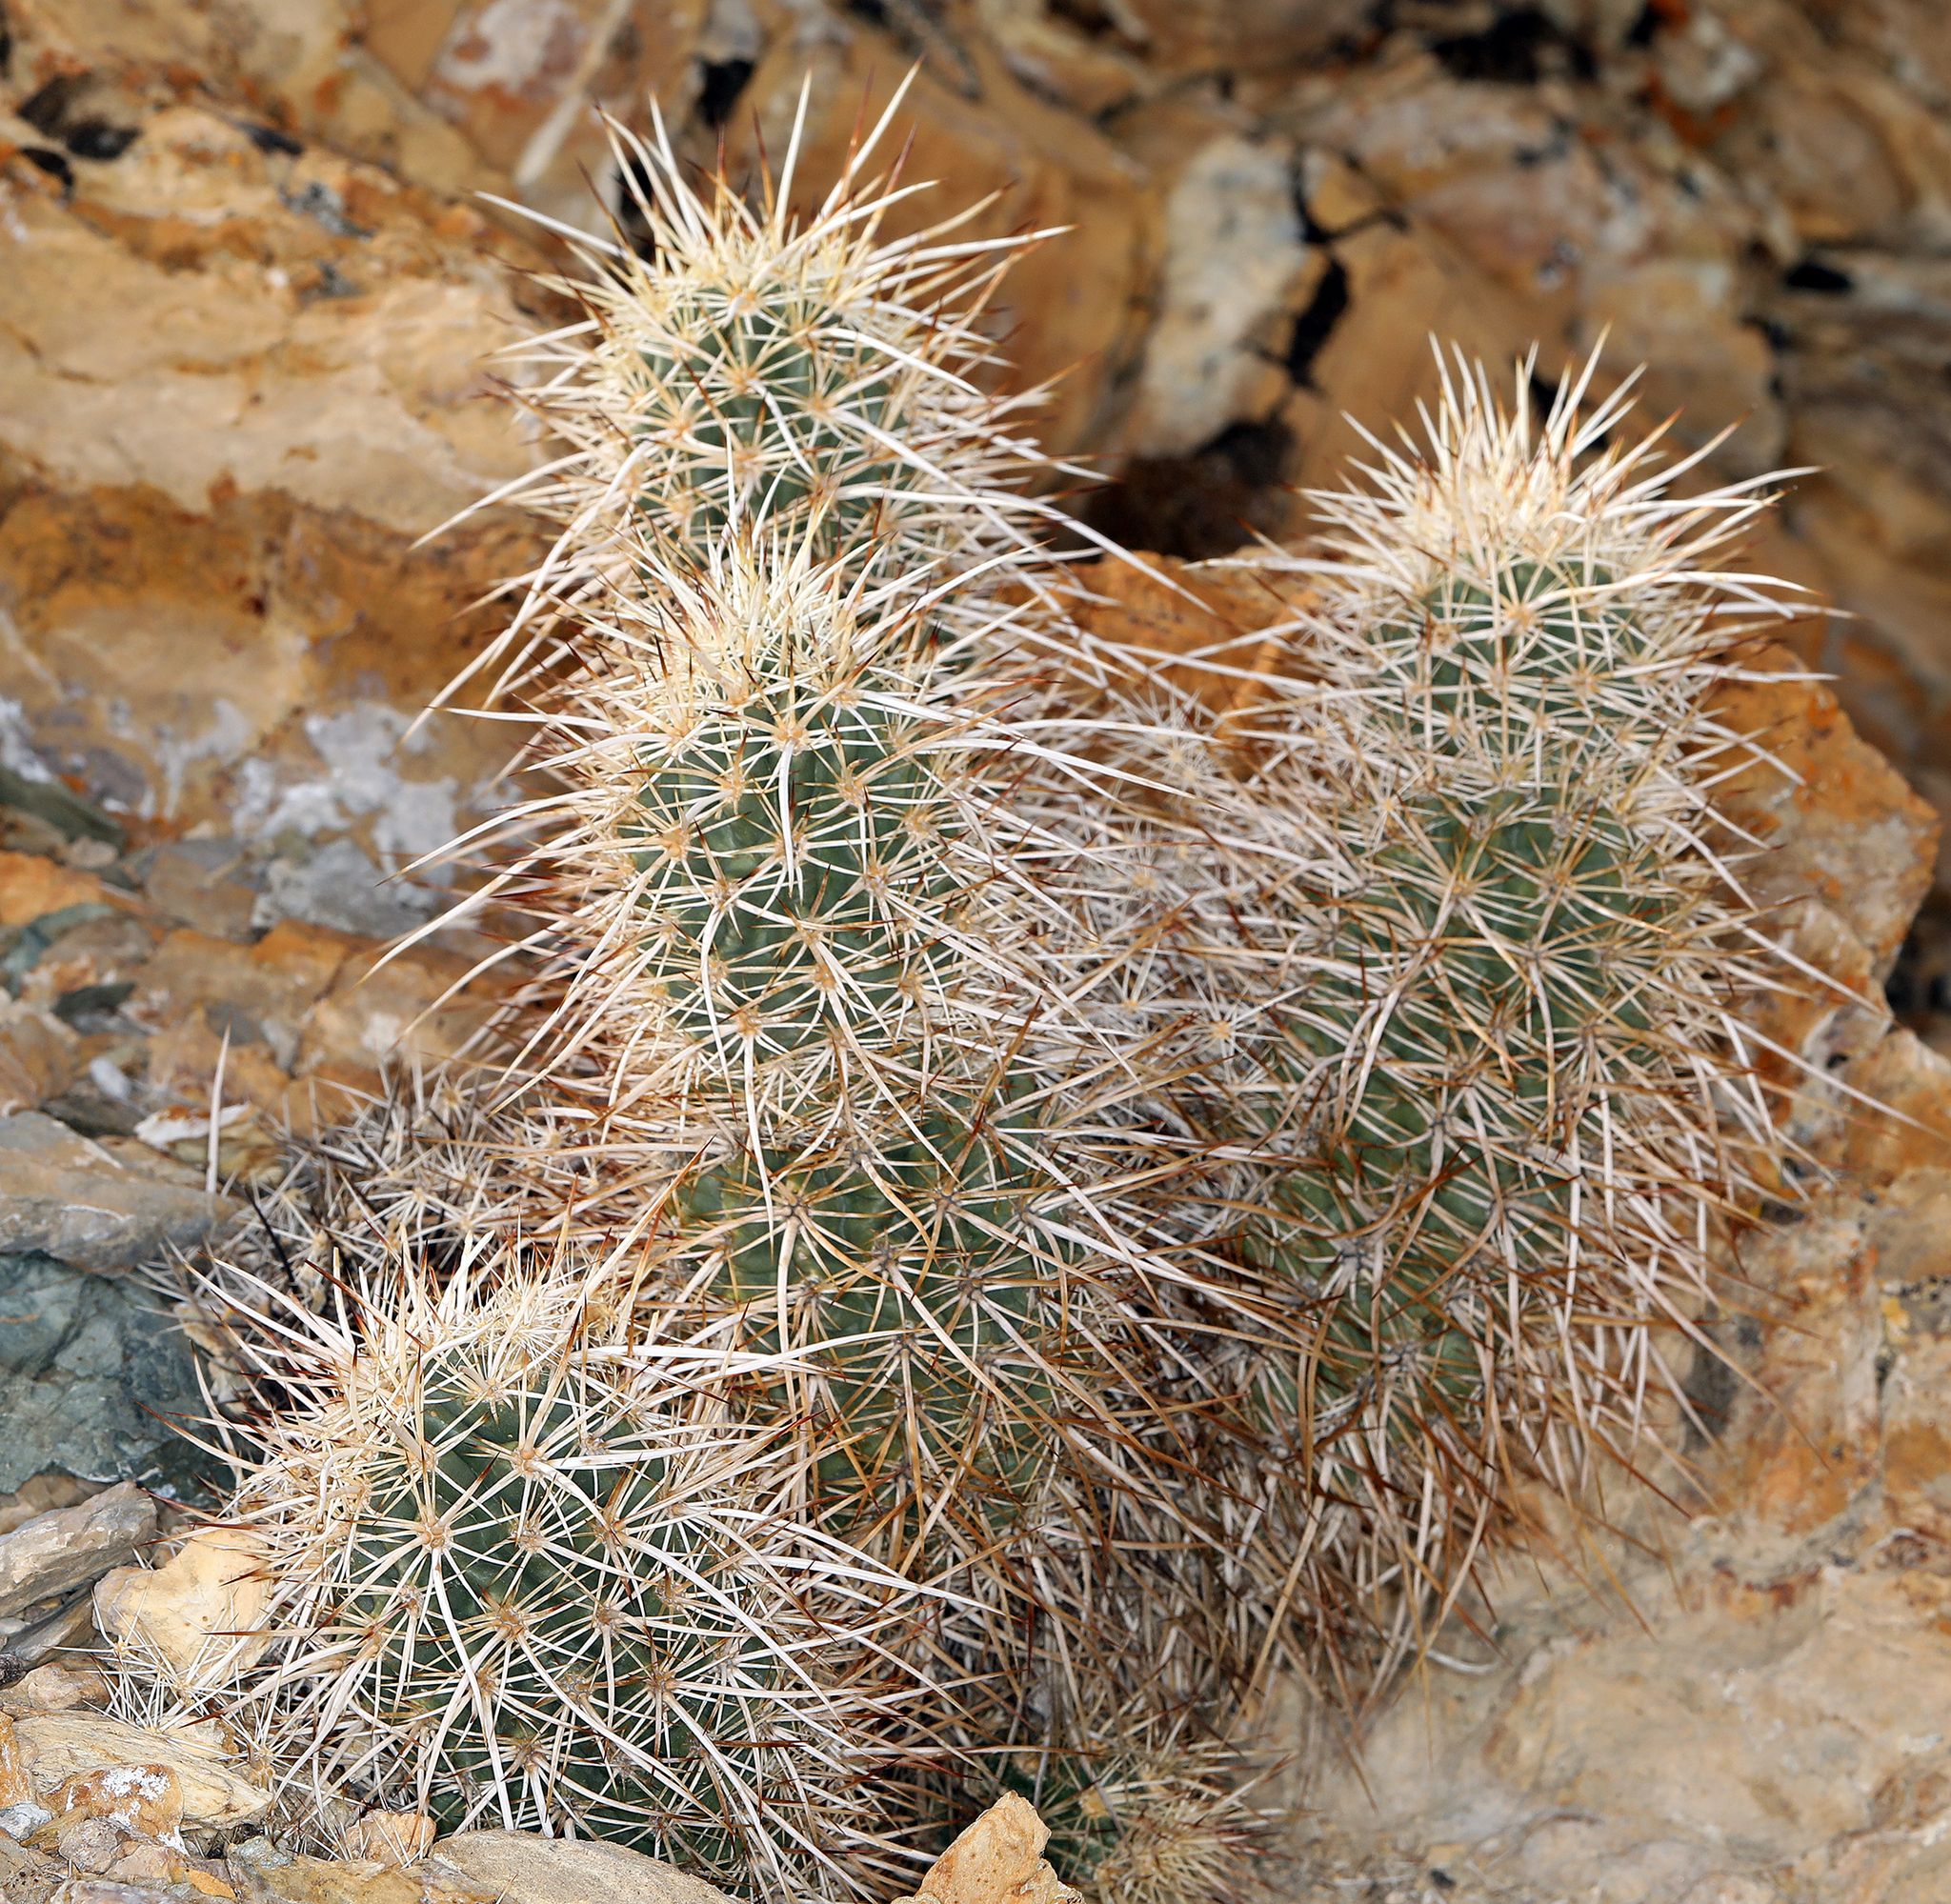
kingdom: Plantae
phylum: Tracheophyta
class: Magnoliopsida
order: Caryophyllales
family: Cactaceae
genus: Echinocereus
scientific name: Echinocereus engelmannii
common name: Engelmann's hedgehog cactus
